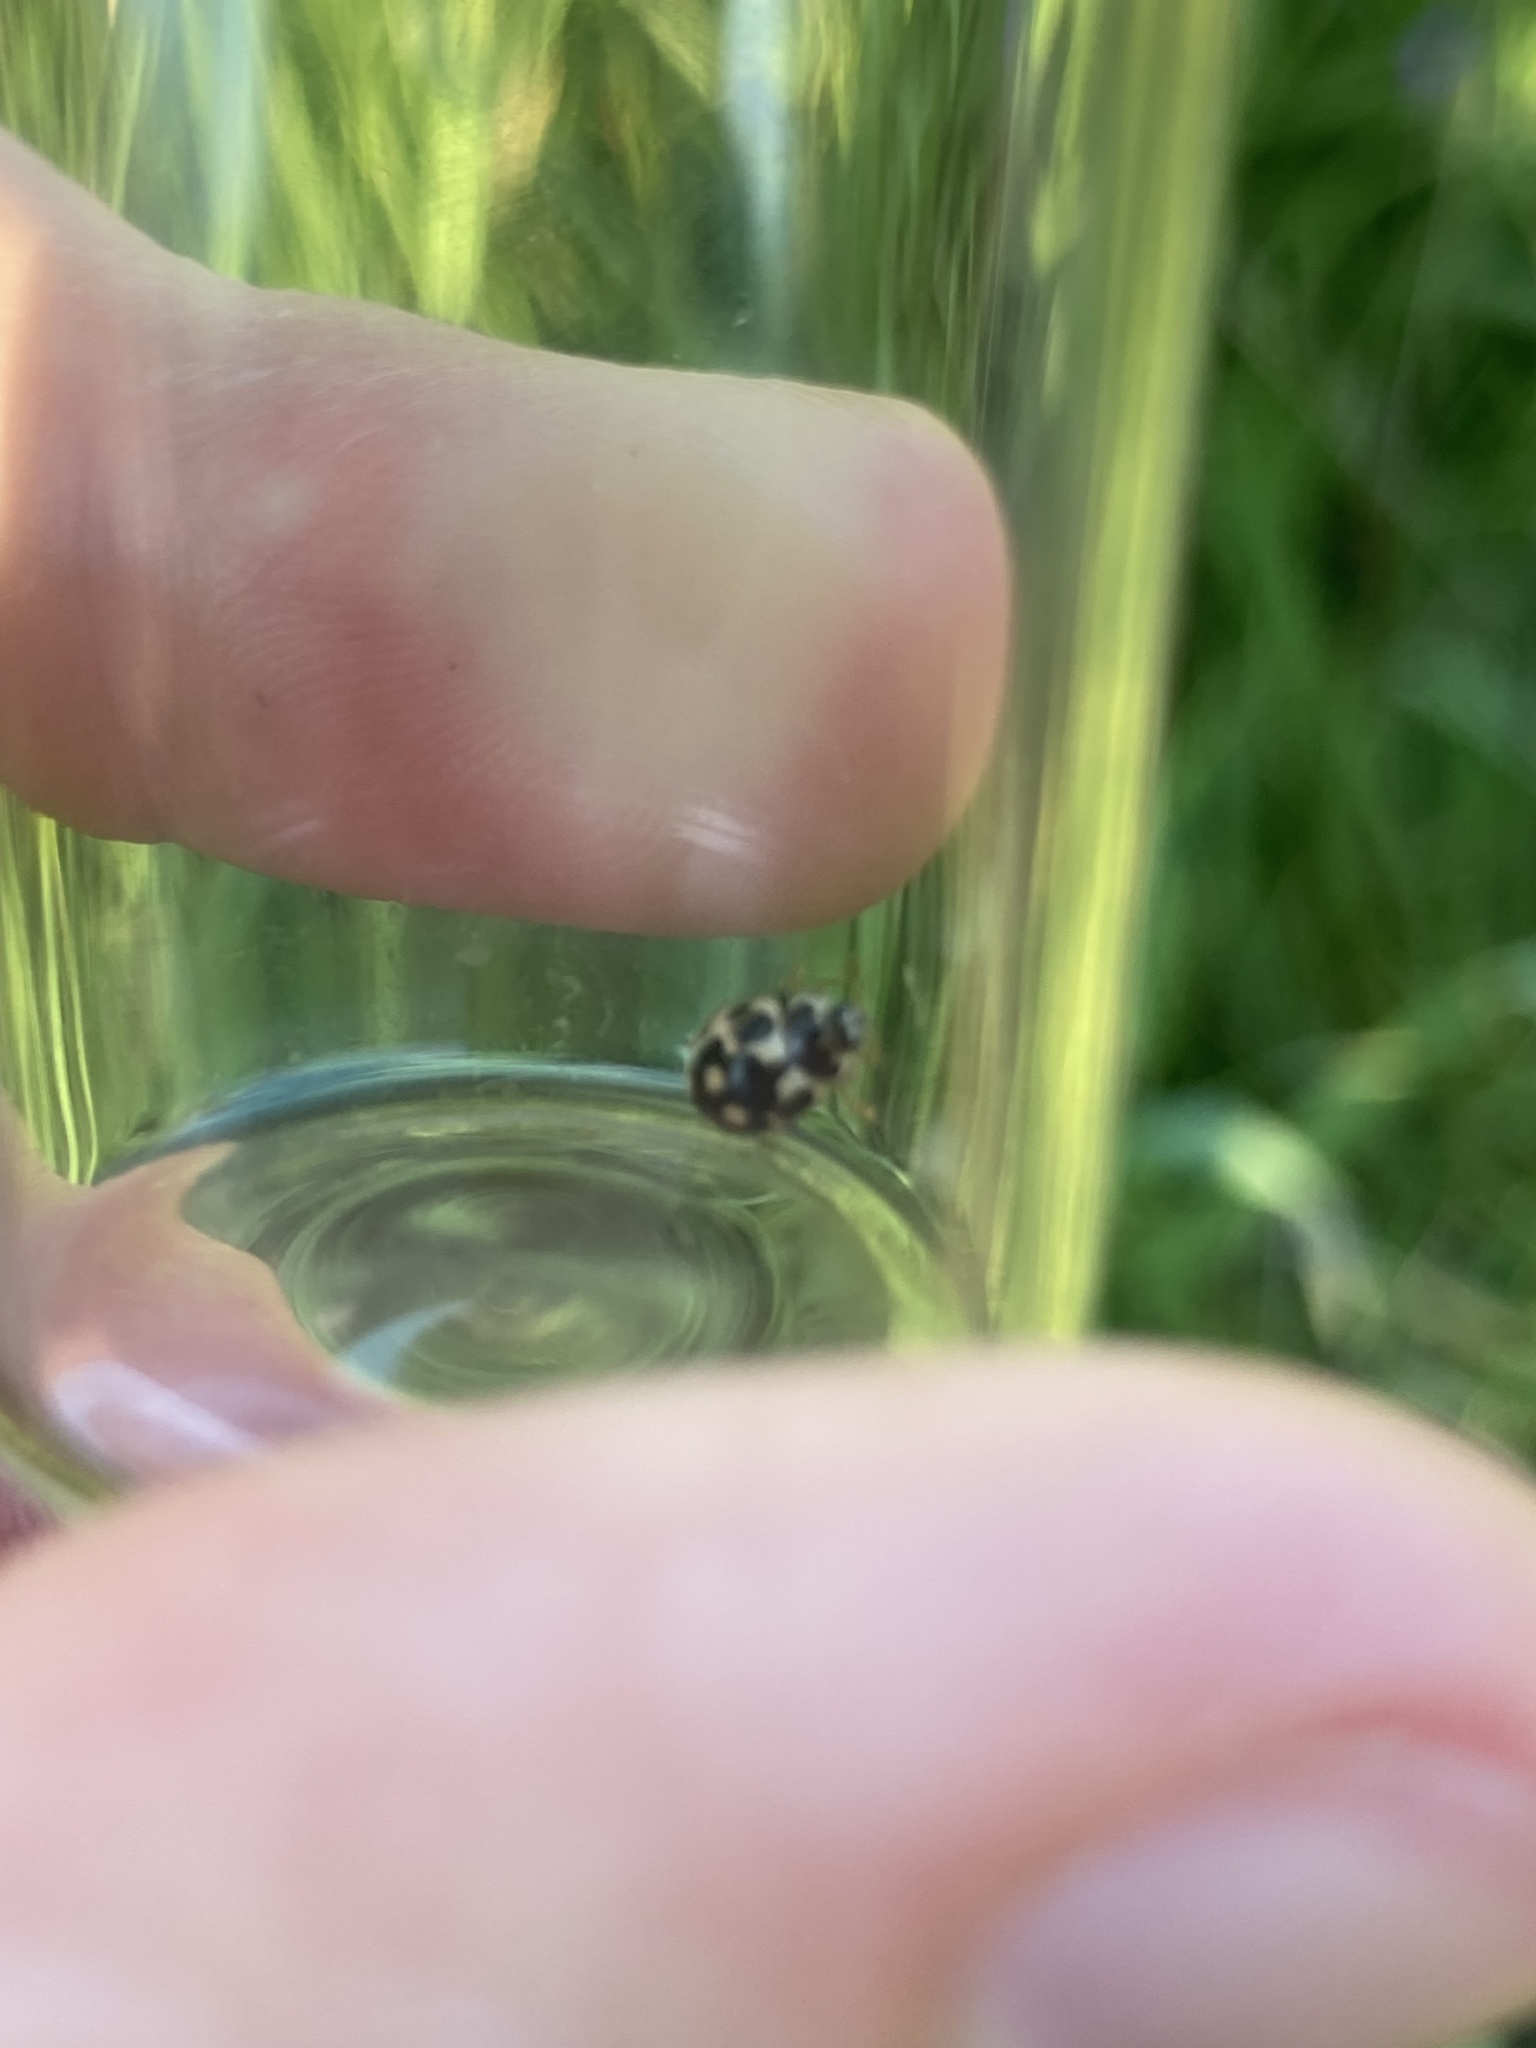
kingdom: Animalia
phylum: Arthropoda
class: Insecta
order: Coleoptera
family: Coccinellidae
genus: Propylaea
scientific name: Propylaea quatuordecimpunctata
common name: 14-spotted ladybird beetle
